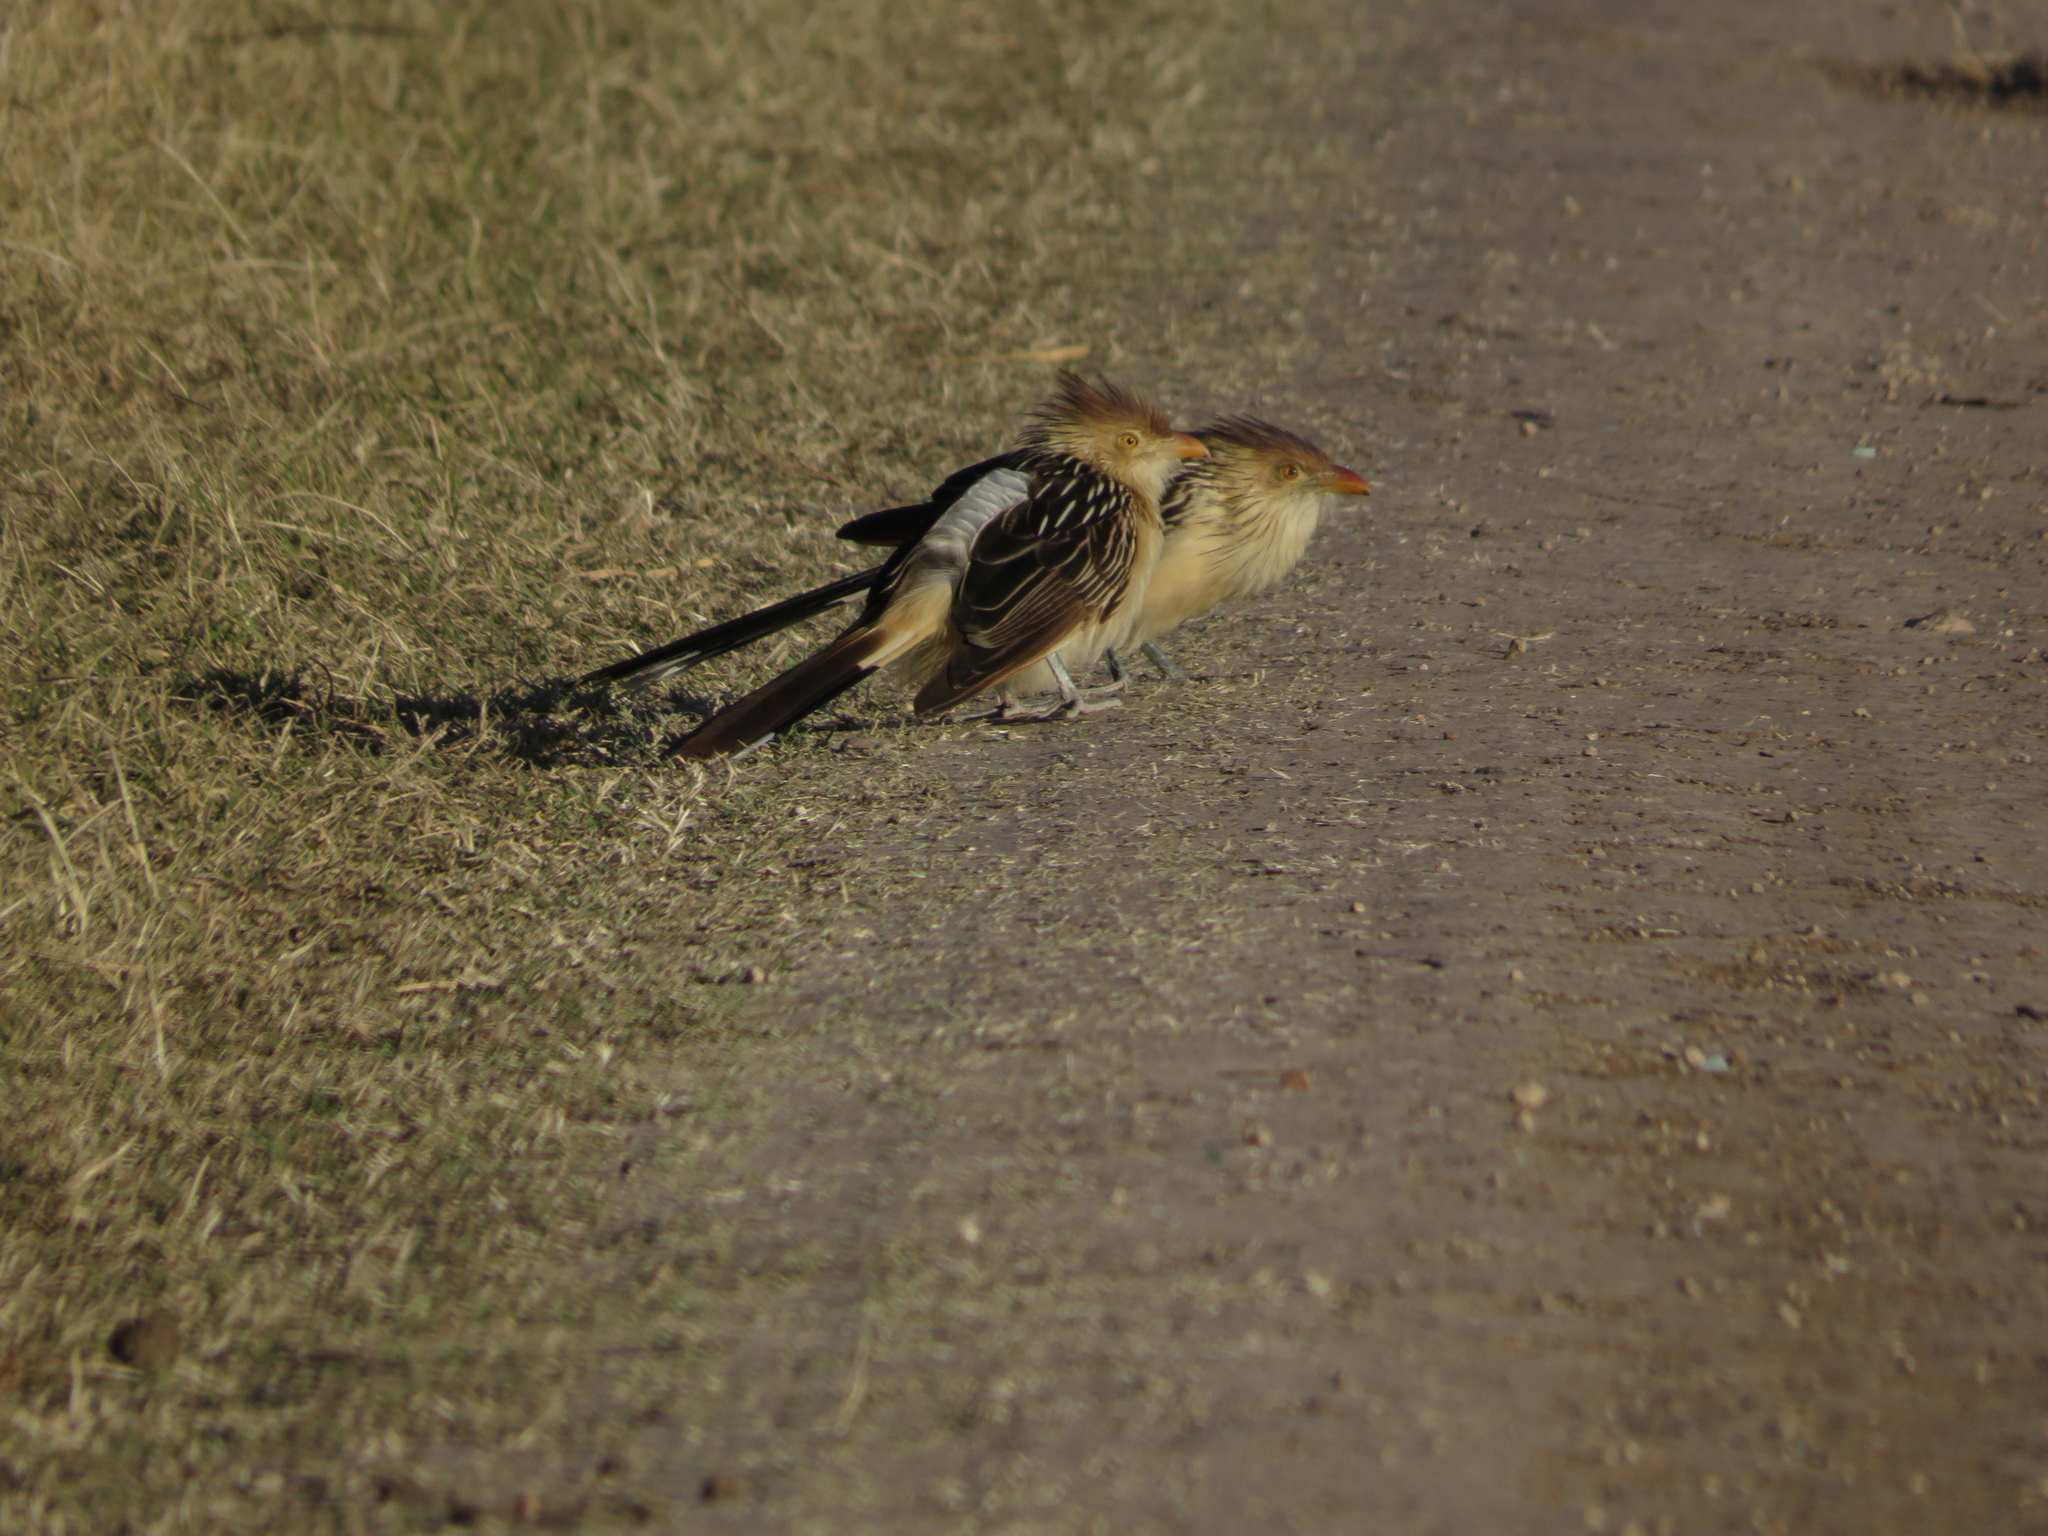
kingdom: Animalia
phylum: Chordata
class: Aves
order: Cuculiformes
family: Cuculidae
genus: Guira
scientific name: Guira guira
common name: Guira cuckoo
